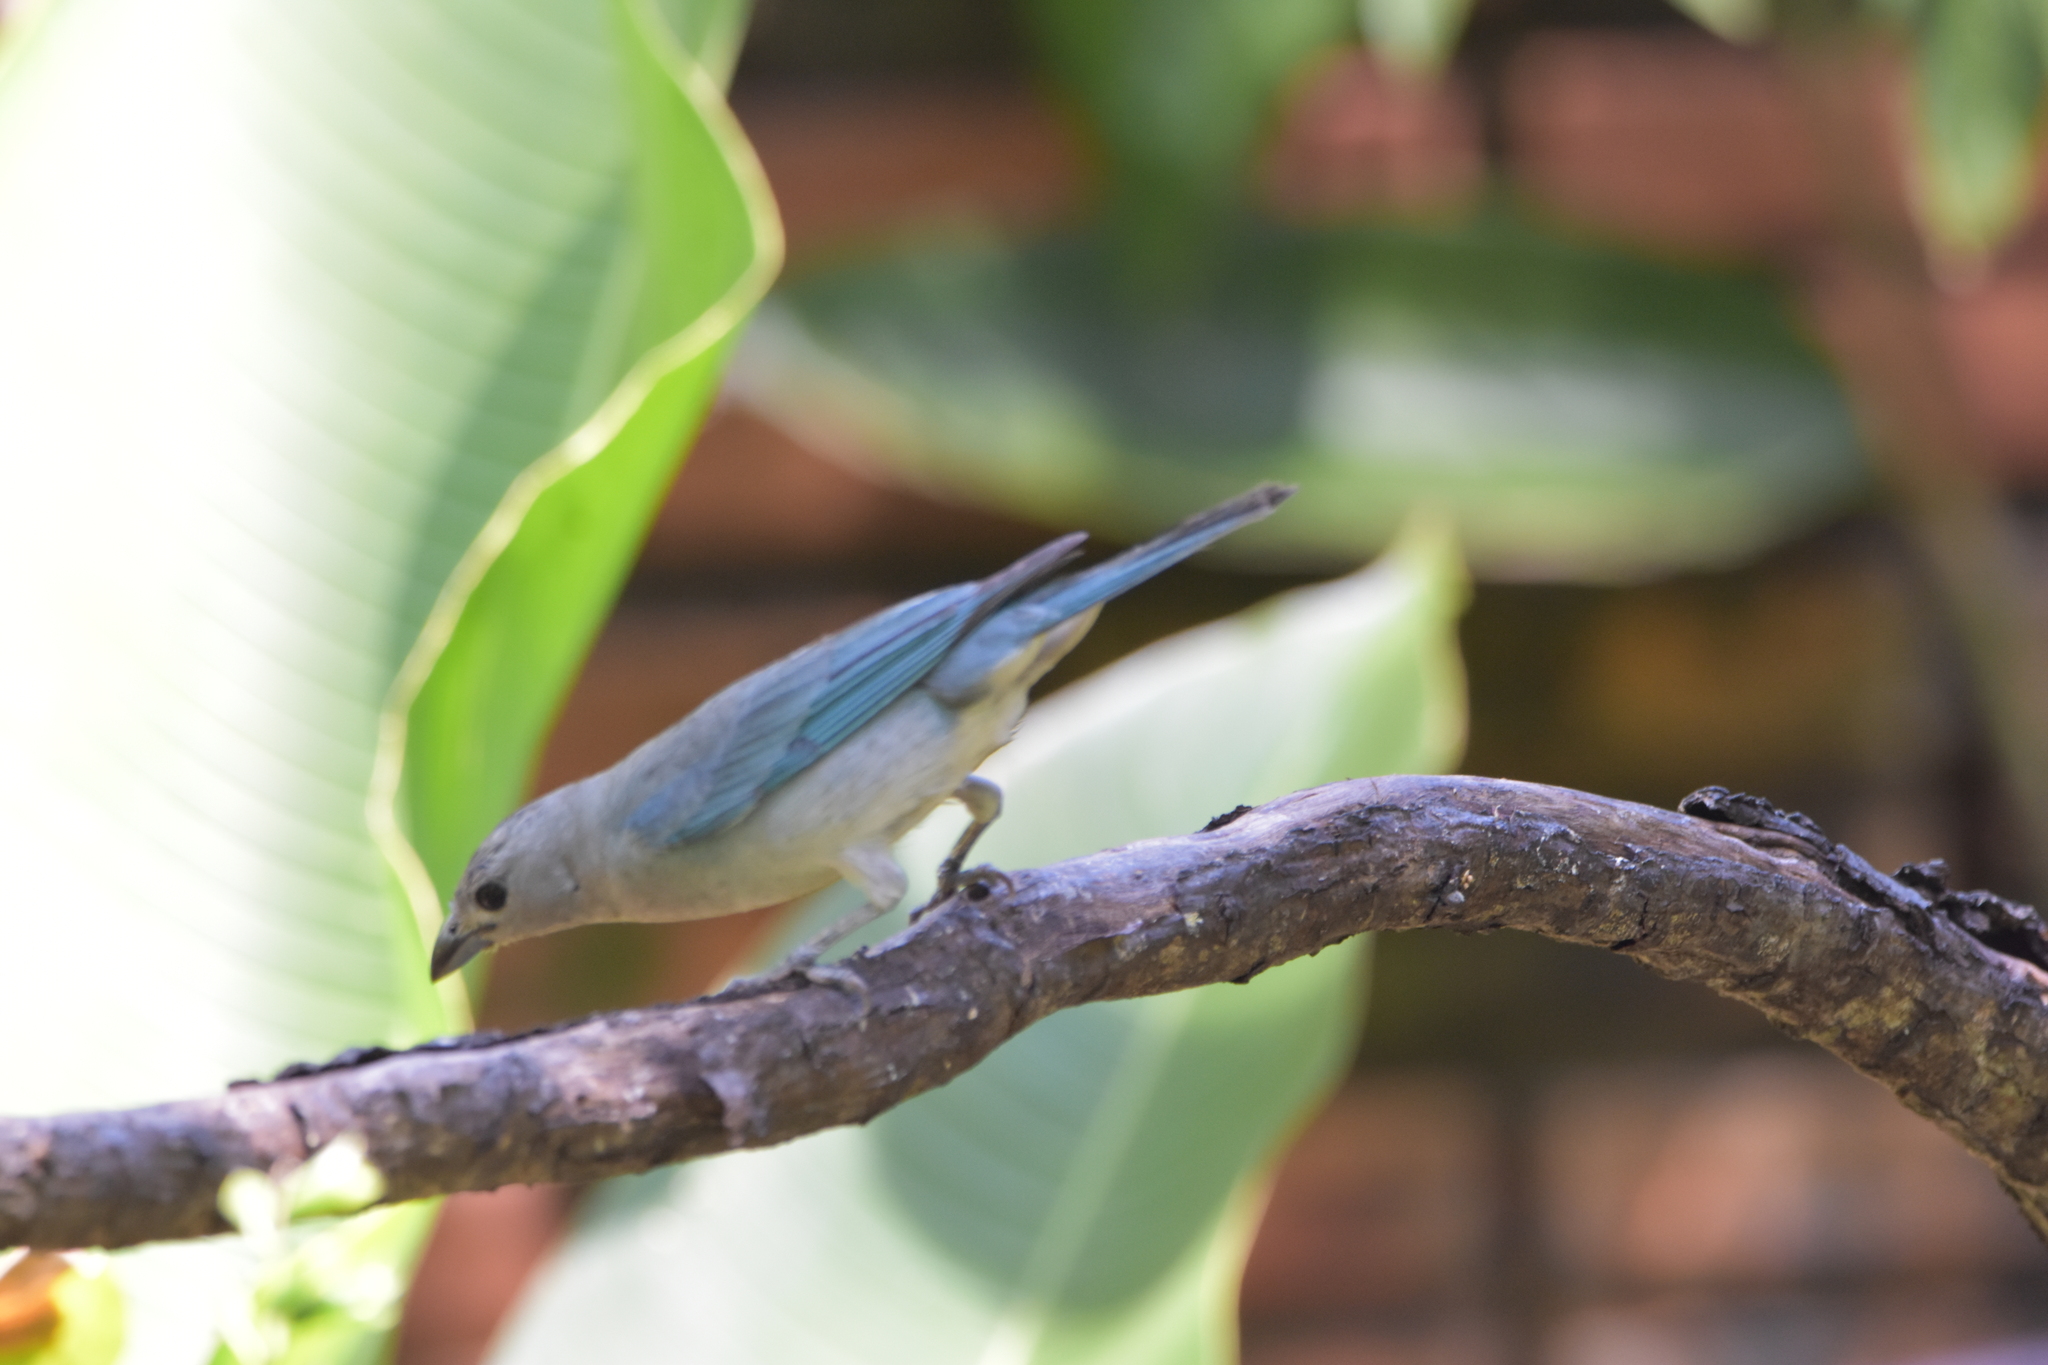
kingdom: Animalia
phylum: Chordata
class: Aves
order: Passeriformes
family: Thraupidae
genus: Thraupis
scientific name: Thraupis sayaca
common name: Sayaca tanager
